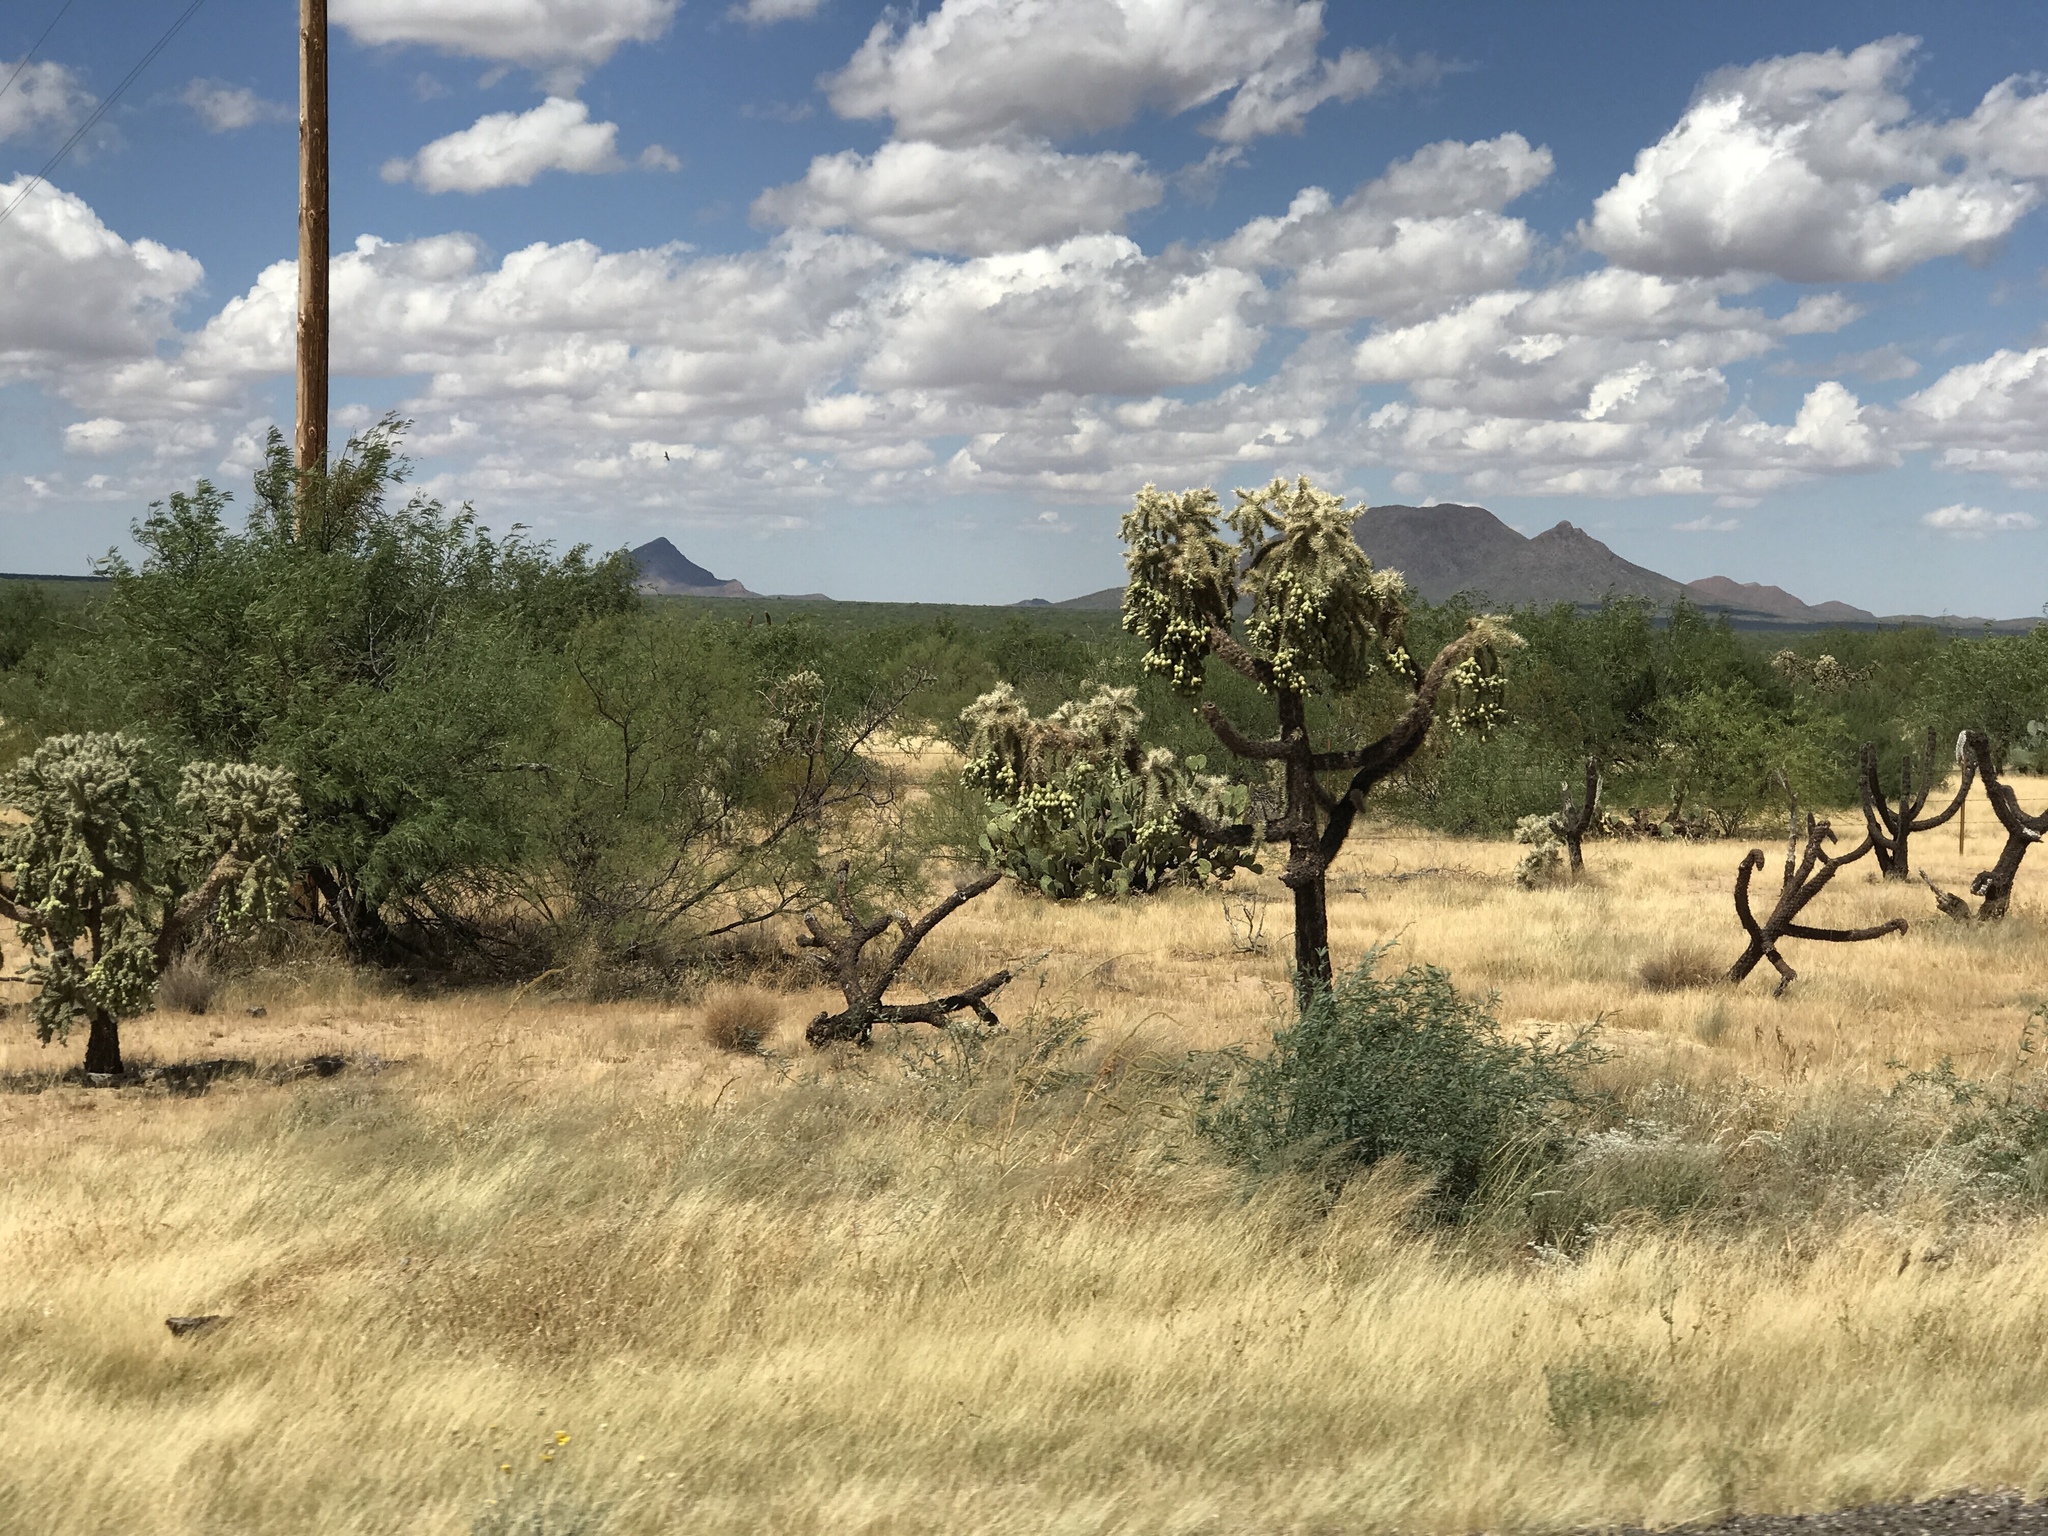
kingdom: Plantae
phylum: Tracheophyta
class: Magnoliopsida
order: Caryophyllales
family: Cactaceae
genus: Cylindropuntia
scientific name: Cylindropuntia fulgida
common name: Jumping cholla
